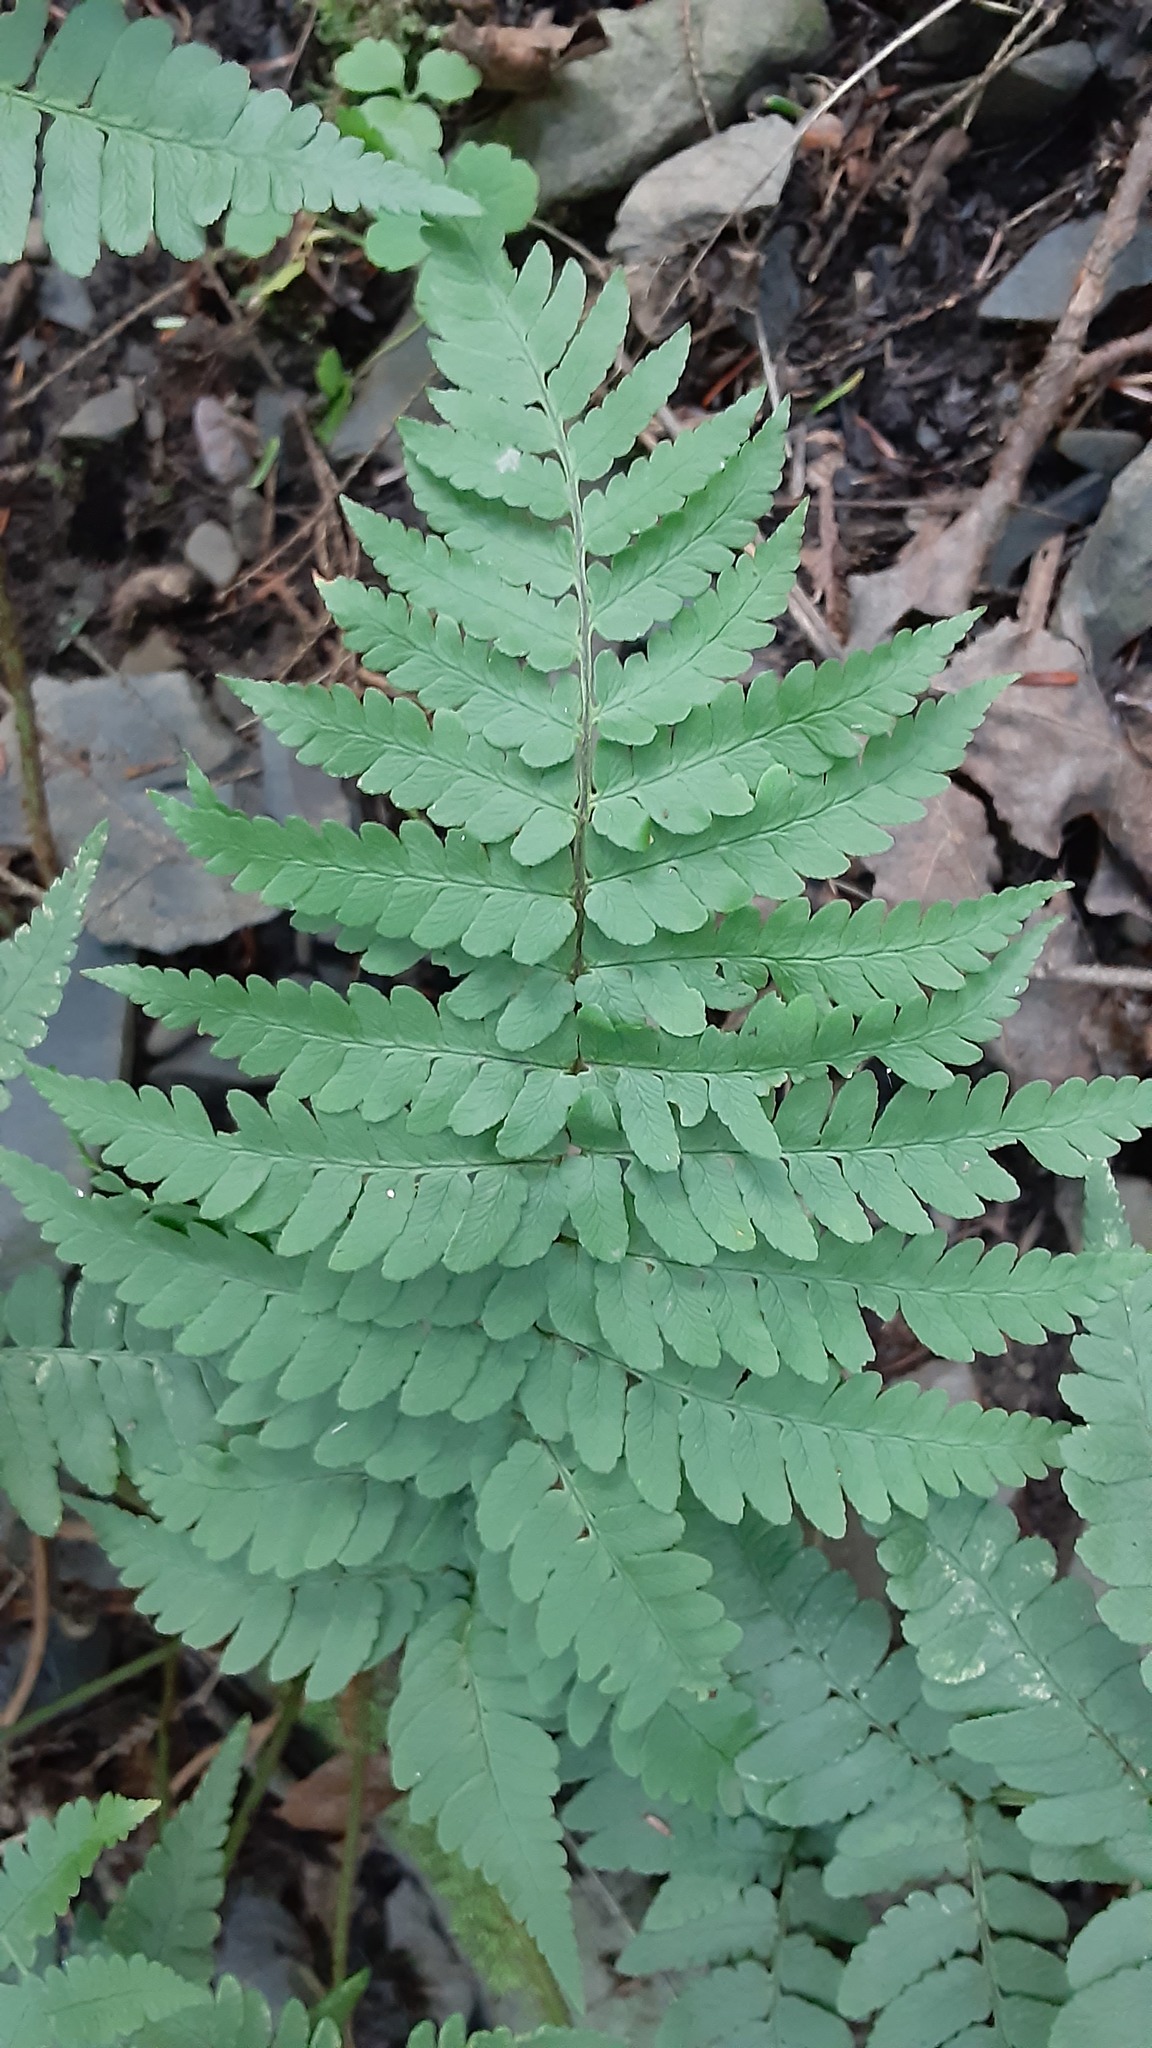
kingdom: Plantae
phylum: Tracheophyta
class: Polypodiopsida
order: Polypodiales
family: Dryopteridaceae
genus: Dryopteris
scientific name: Dryopteris marginalis
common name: Marginal wood fern
